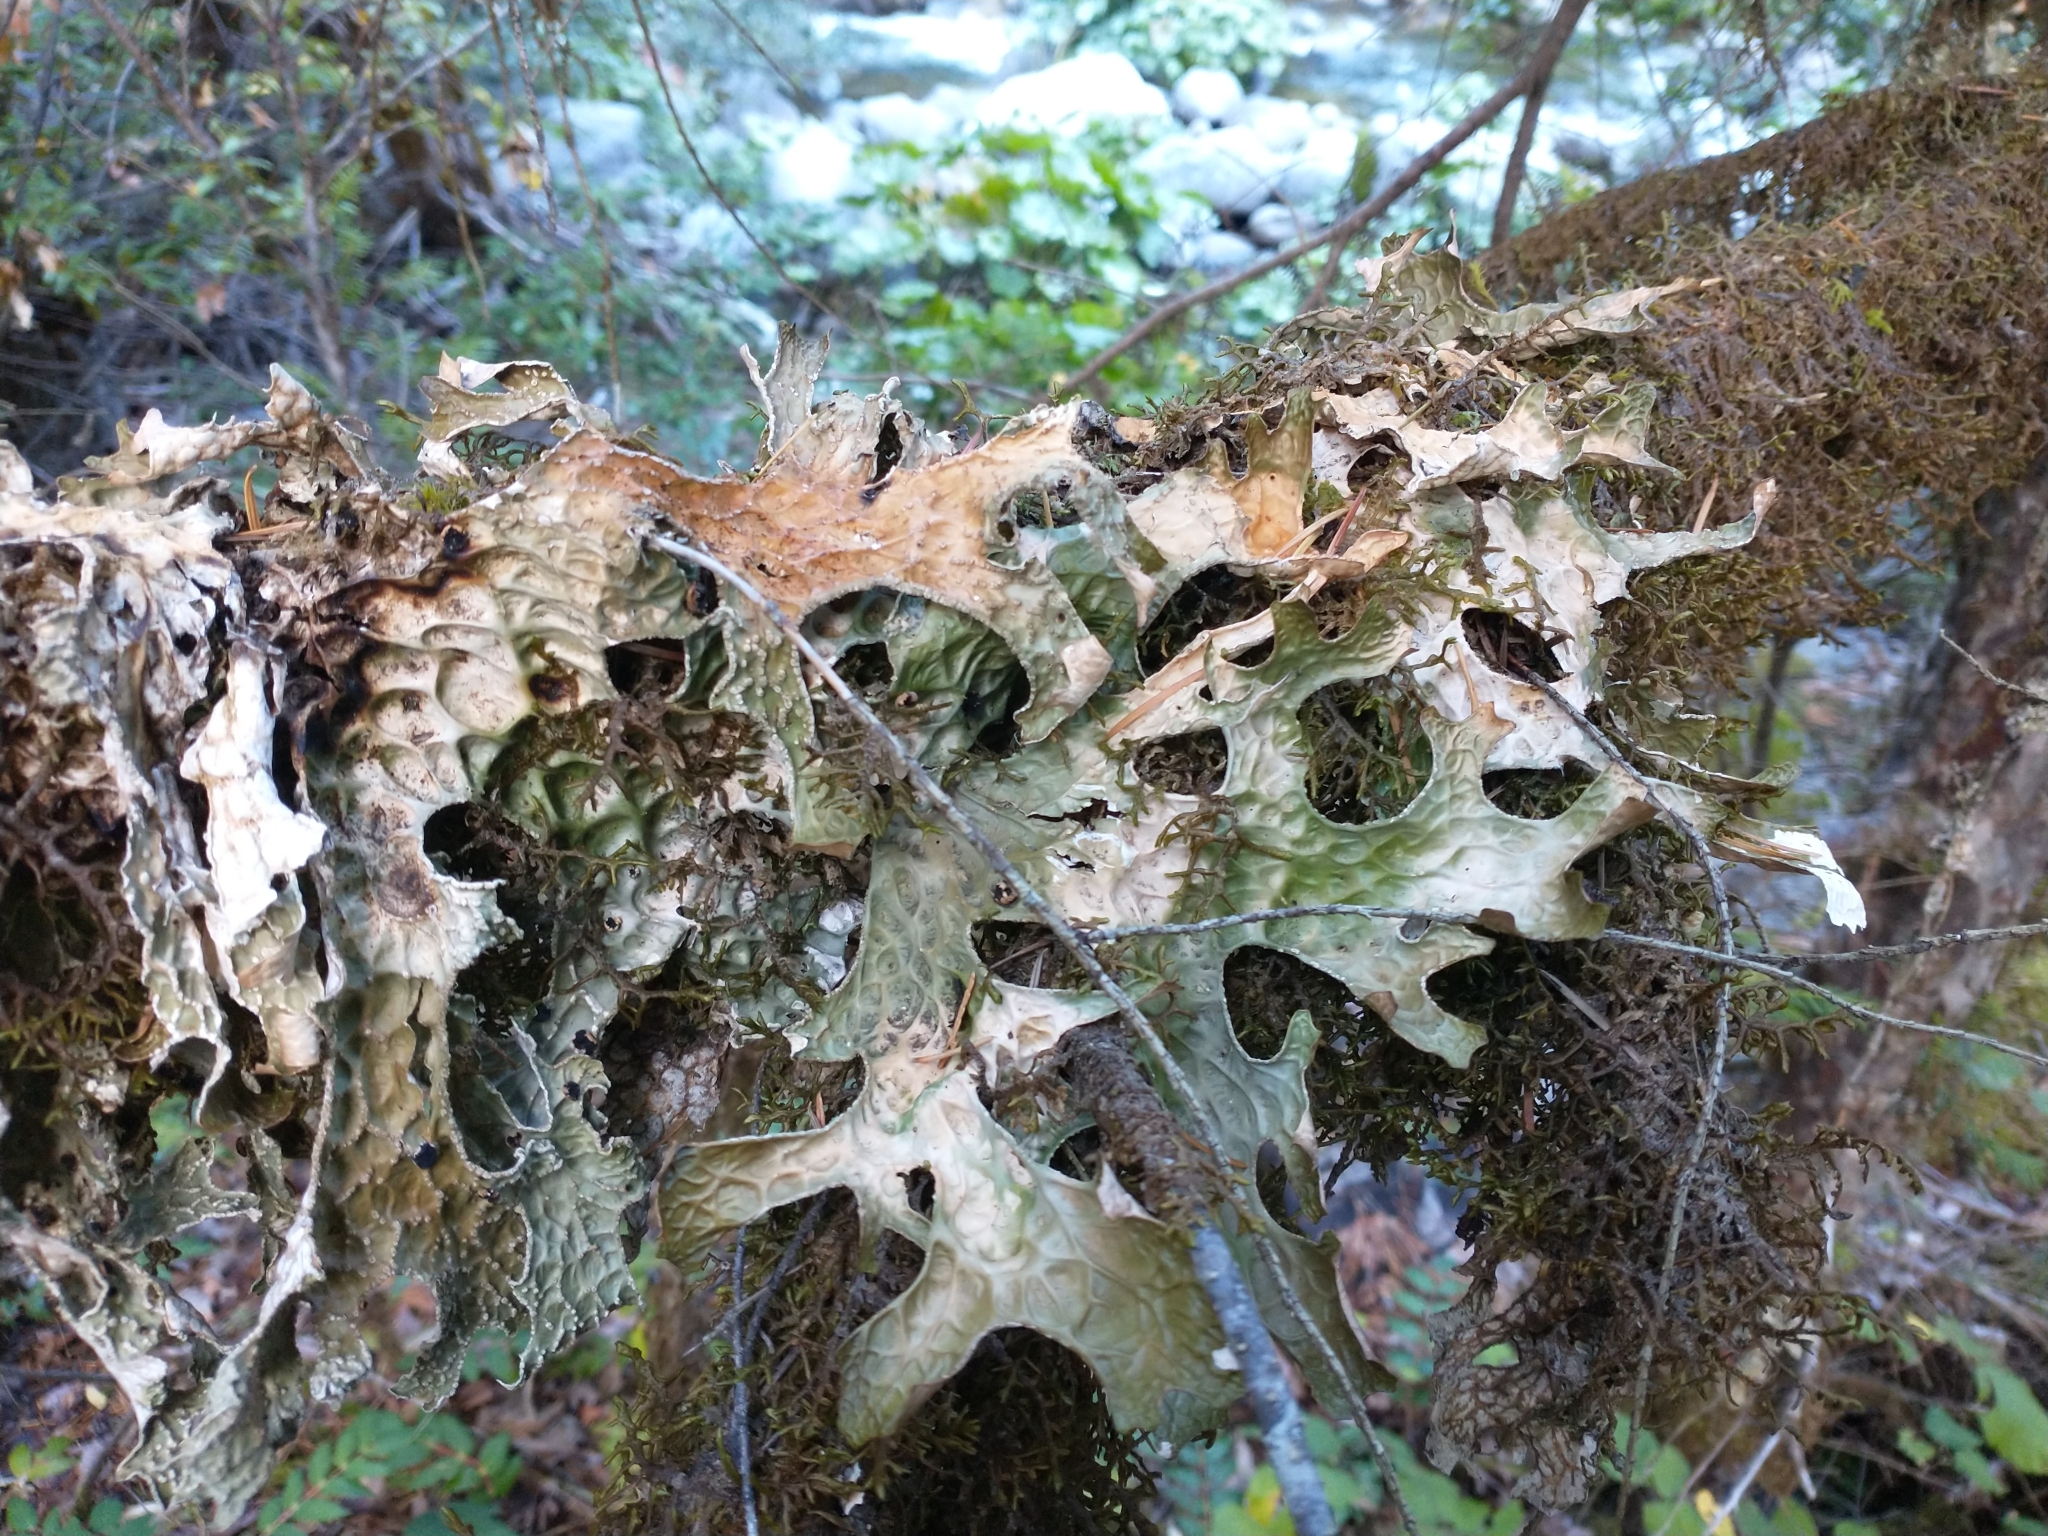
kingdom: Fungi
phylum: Ascomycota
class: Lecanoromycetes
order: Peltigerales
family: Lobariaceae
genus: Lobaria
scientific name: Lobaria pulmonaria
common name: Lungwort
